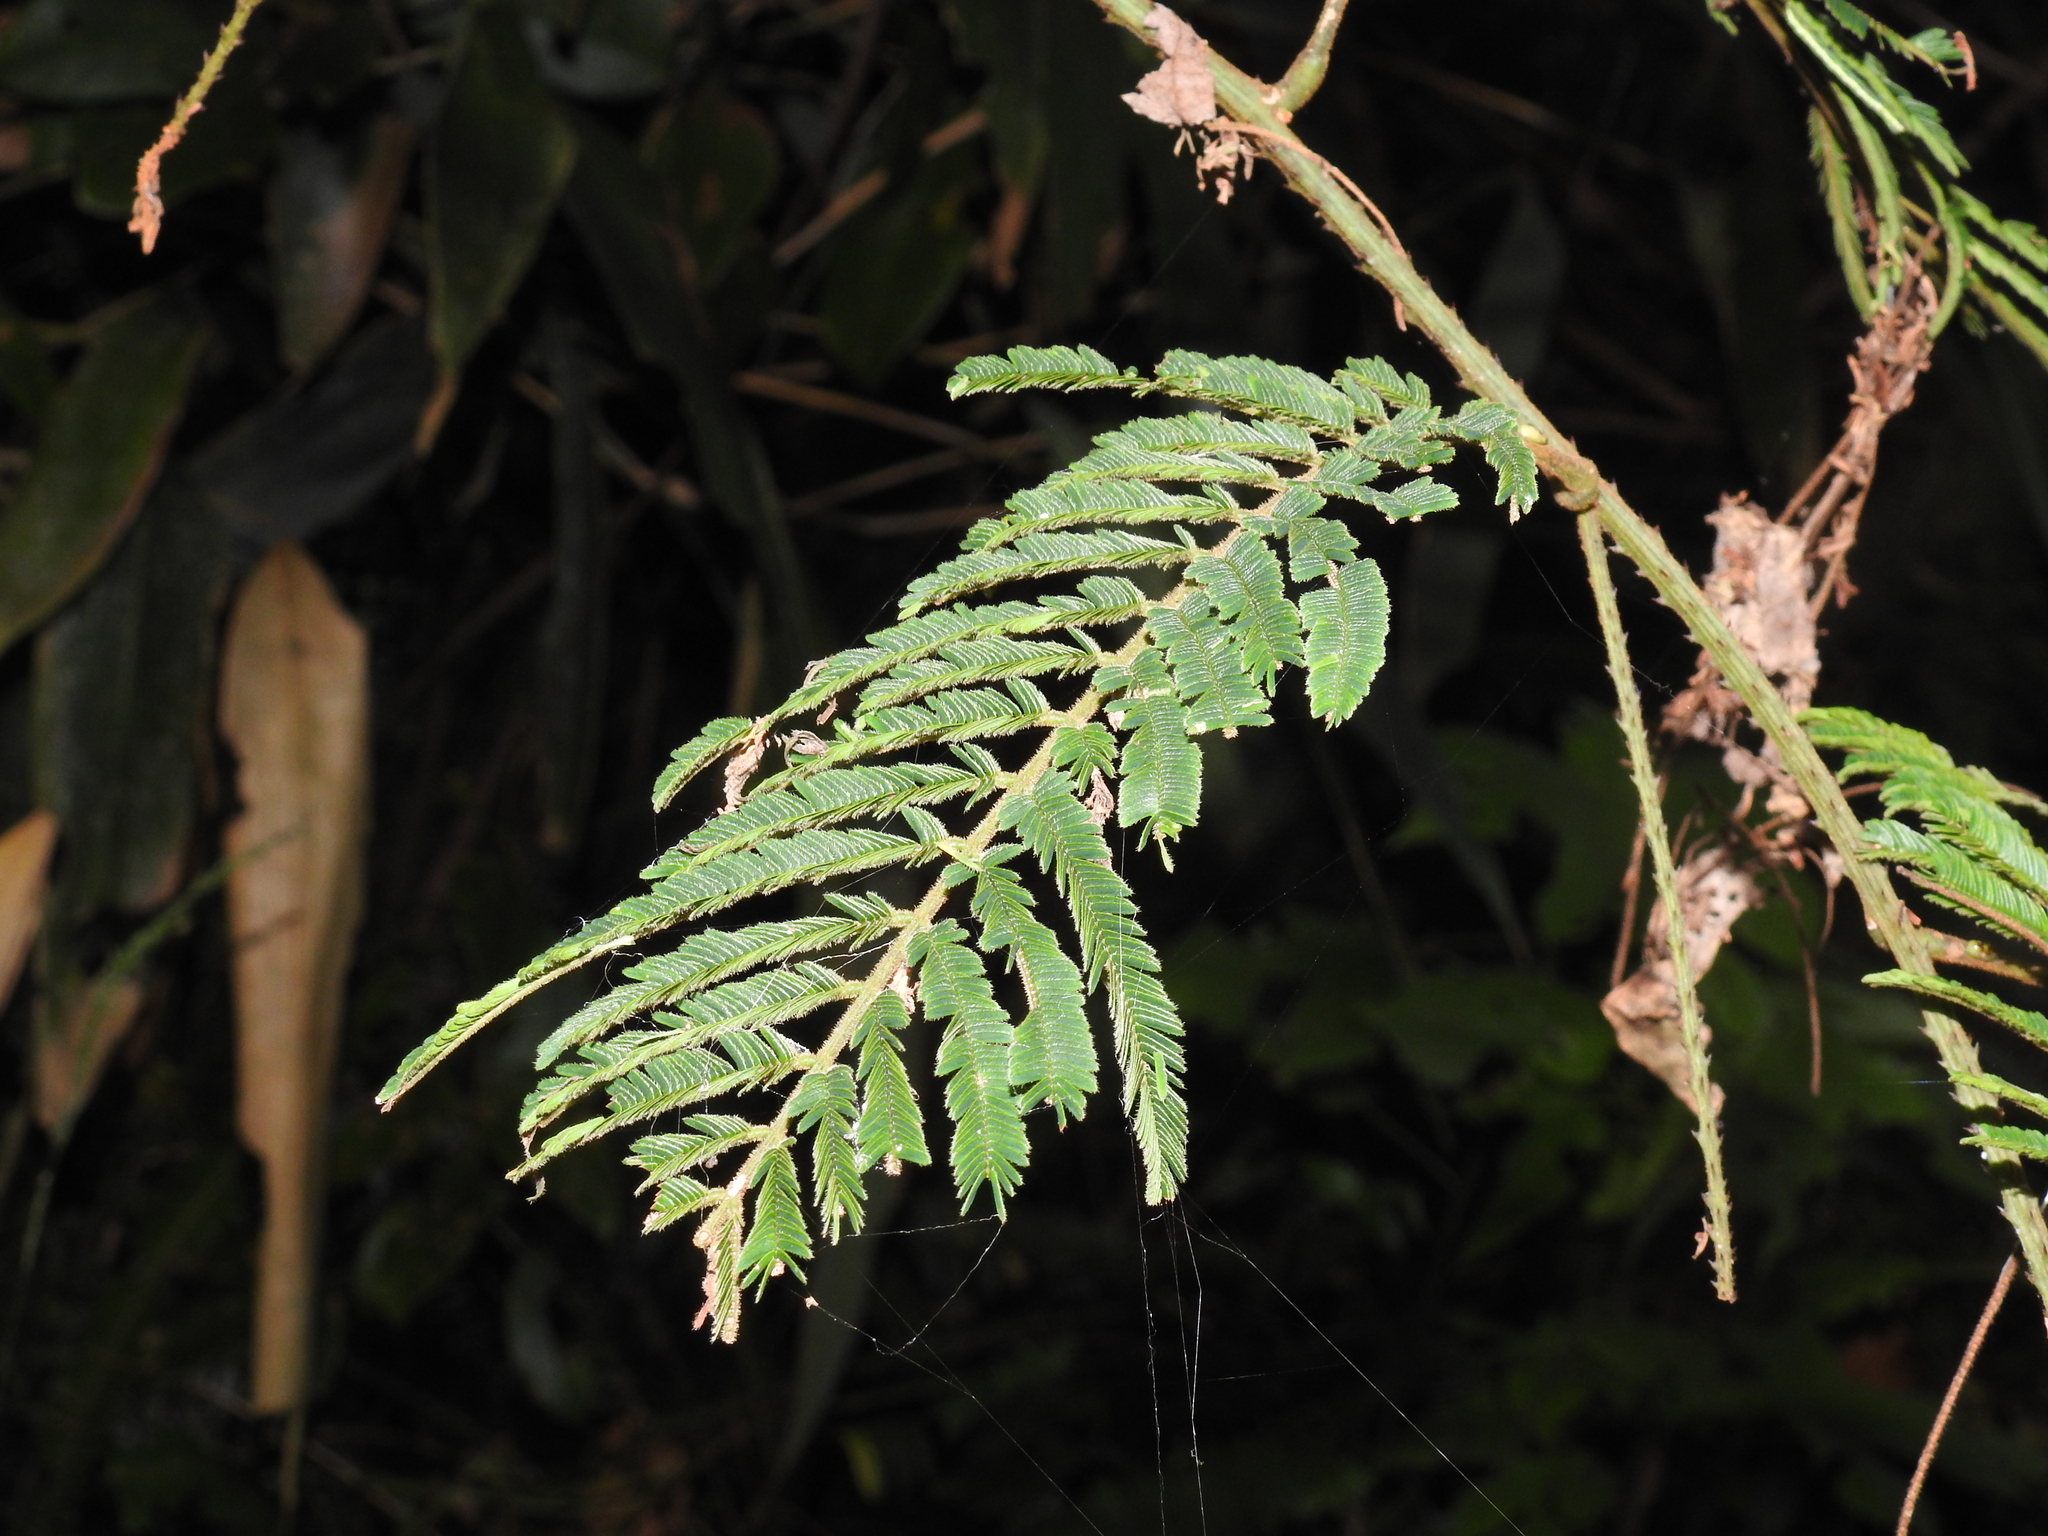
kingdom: Plantae
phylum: Tracheophyta
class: Magnoliopsida
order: Fabales
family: Fabaceae
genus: Senegalia
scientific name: Senegalia merrillii
